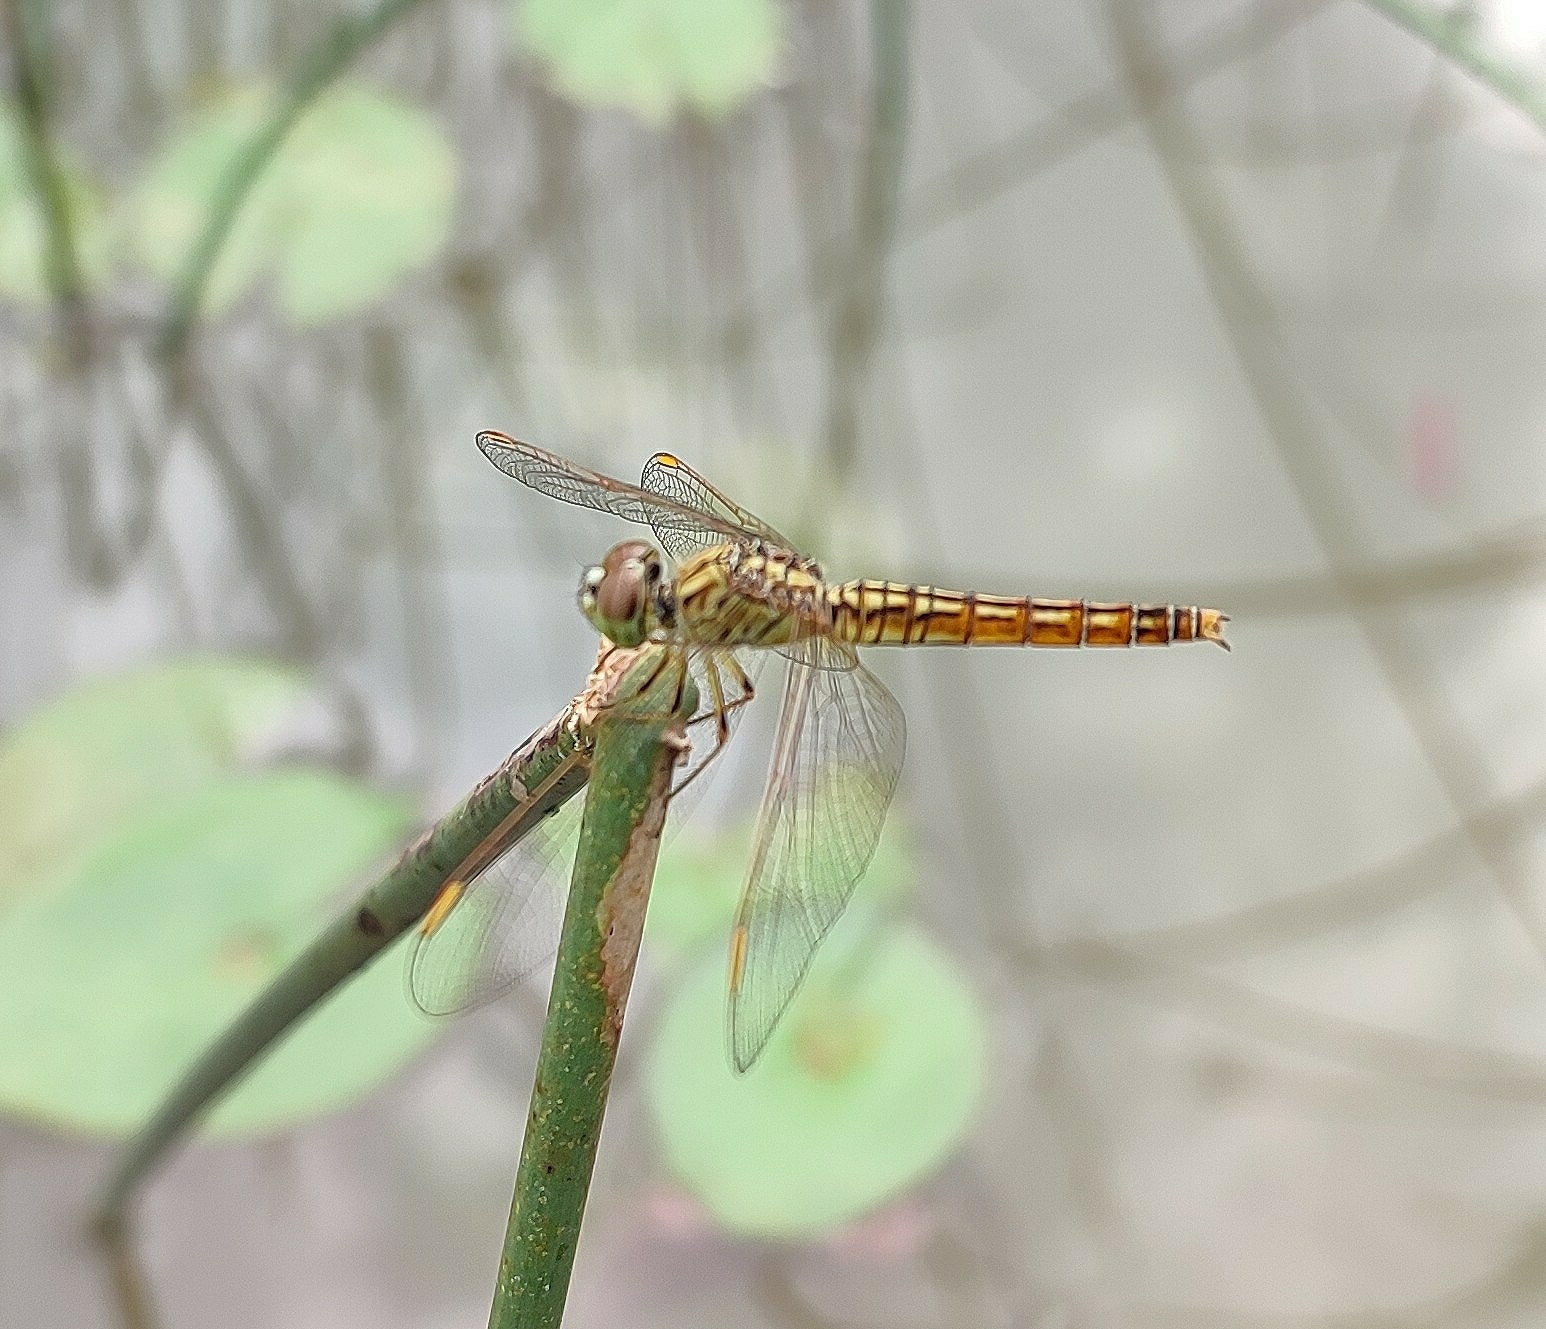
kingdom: Animalia
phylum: Arthropoda
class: Insecta
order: Odonata
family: Libellulidae
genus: Brachythemis
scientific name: Brachythemis contaminata
